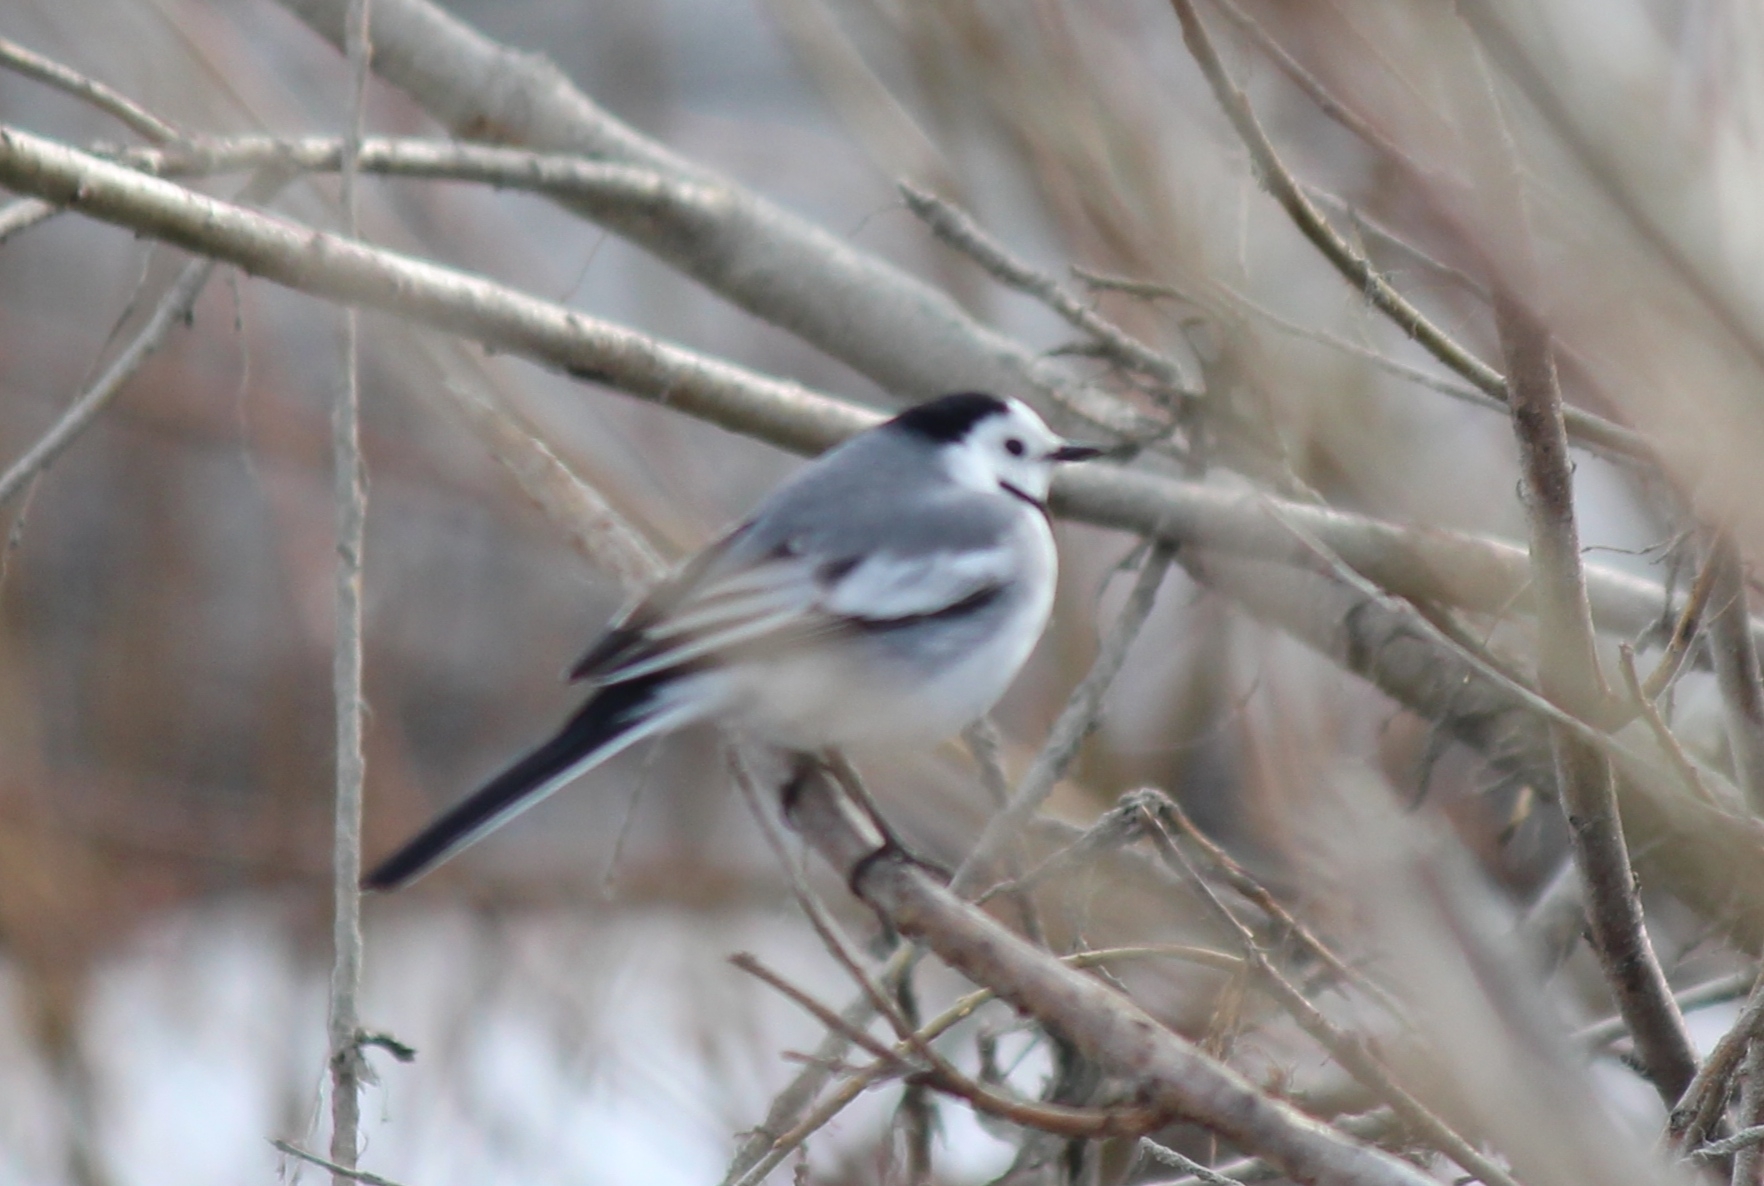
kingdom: Animalia
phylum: Chordata
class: Aves
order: Passeriformes
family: Motacillidae
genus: Motacilla
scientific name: Motacilla alba
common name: White wagtail
